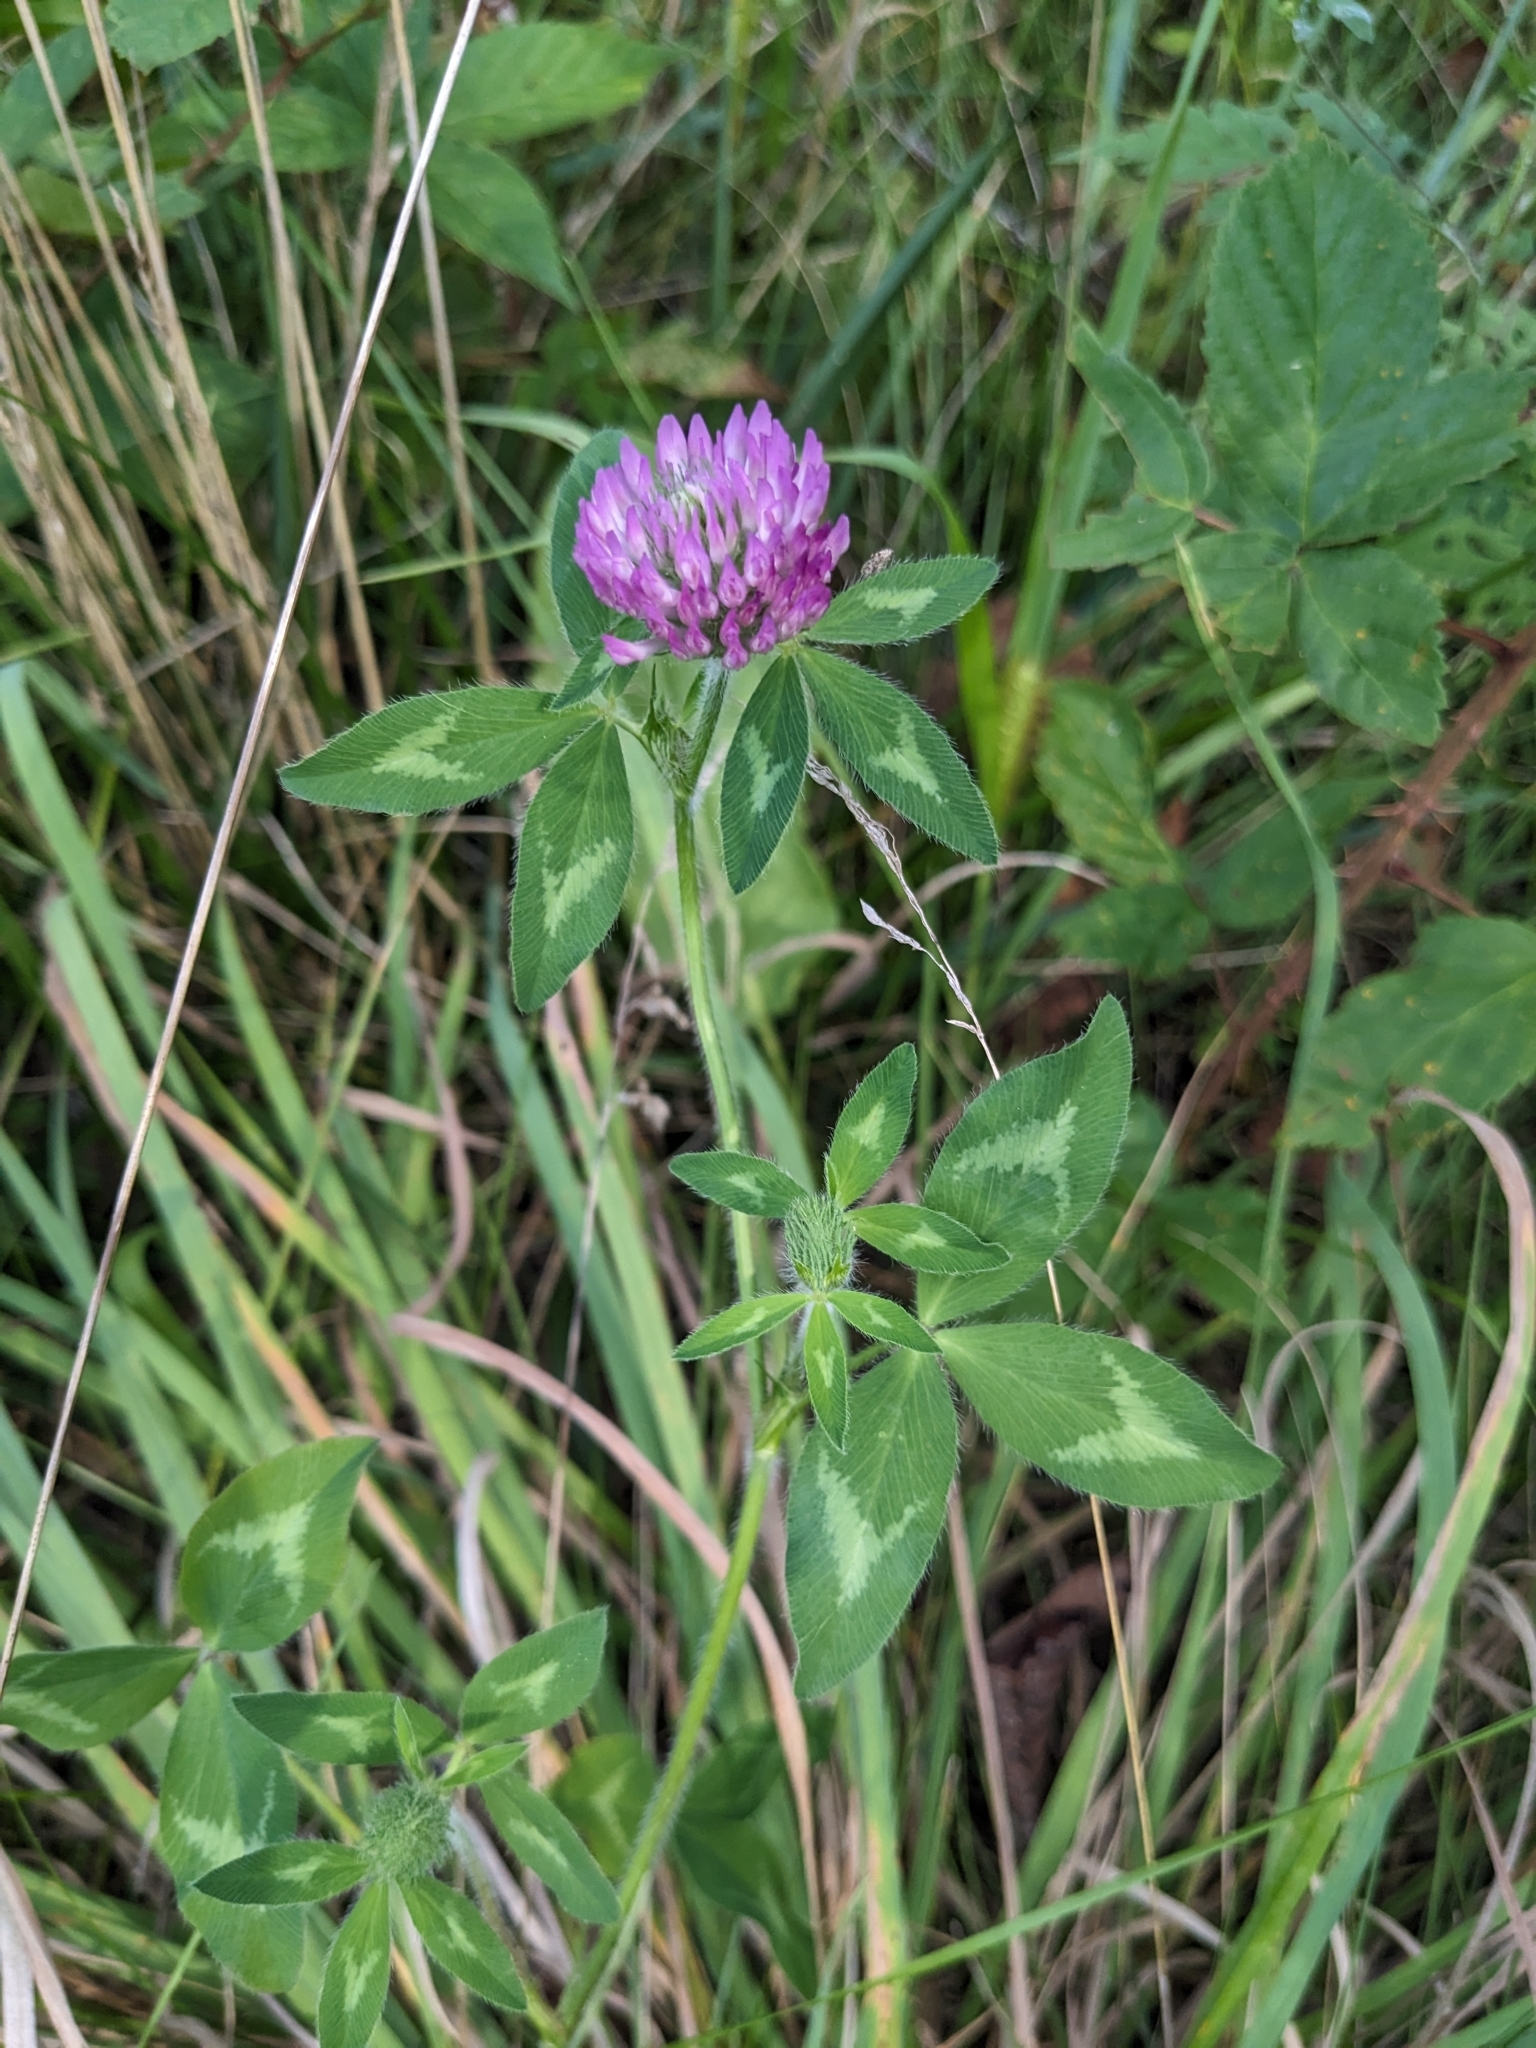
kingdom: Plantae
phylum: Tracheophyta
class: Magnoliopsida
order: Fabales
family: Fabaceae
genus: Trifolium
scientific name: Trifolium pratense
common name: Red clover
